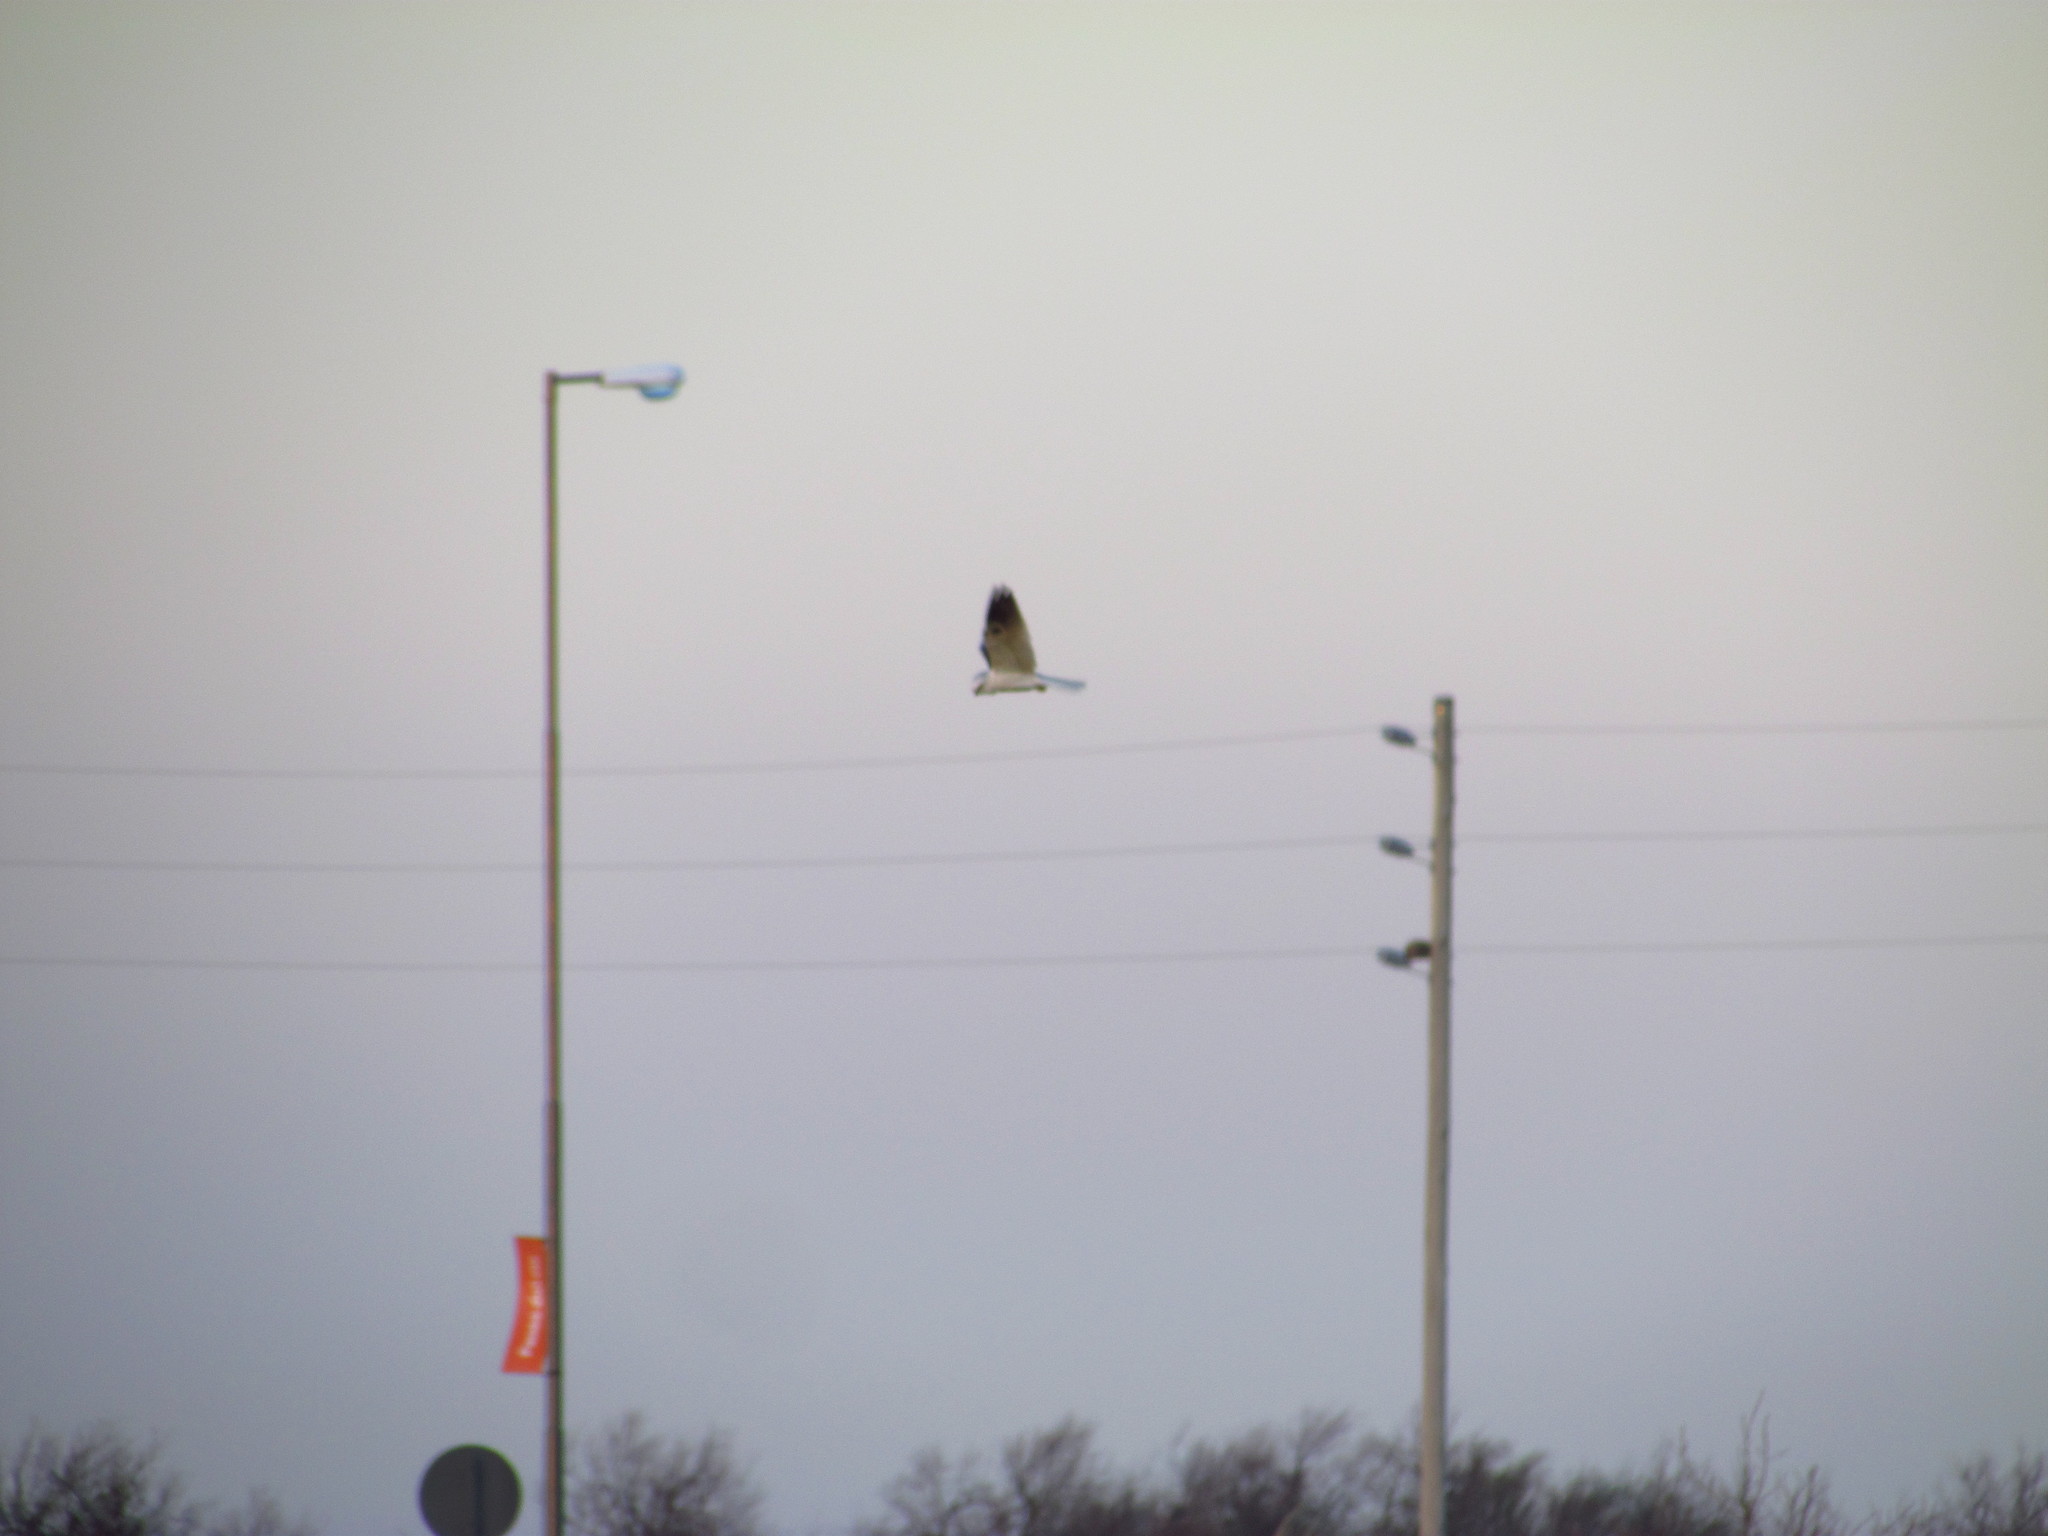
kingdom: Animalia
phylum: Chordata
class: Aves
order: Accipitriformes
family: Accipitridae
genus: Elanus
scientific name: Elanus leucurus
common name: White-tailed kite
